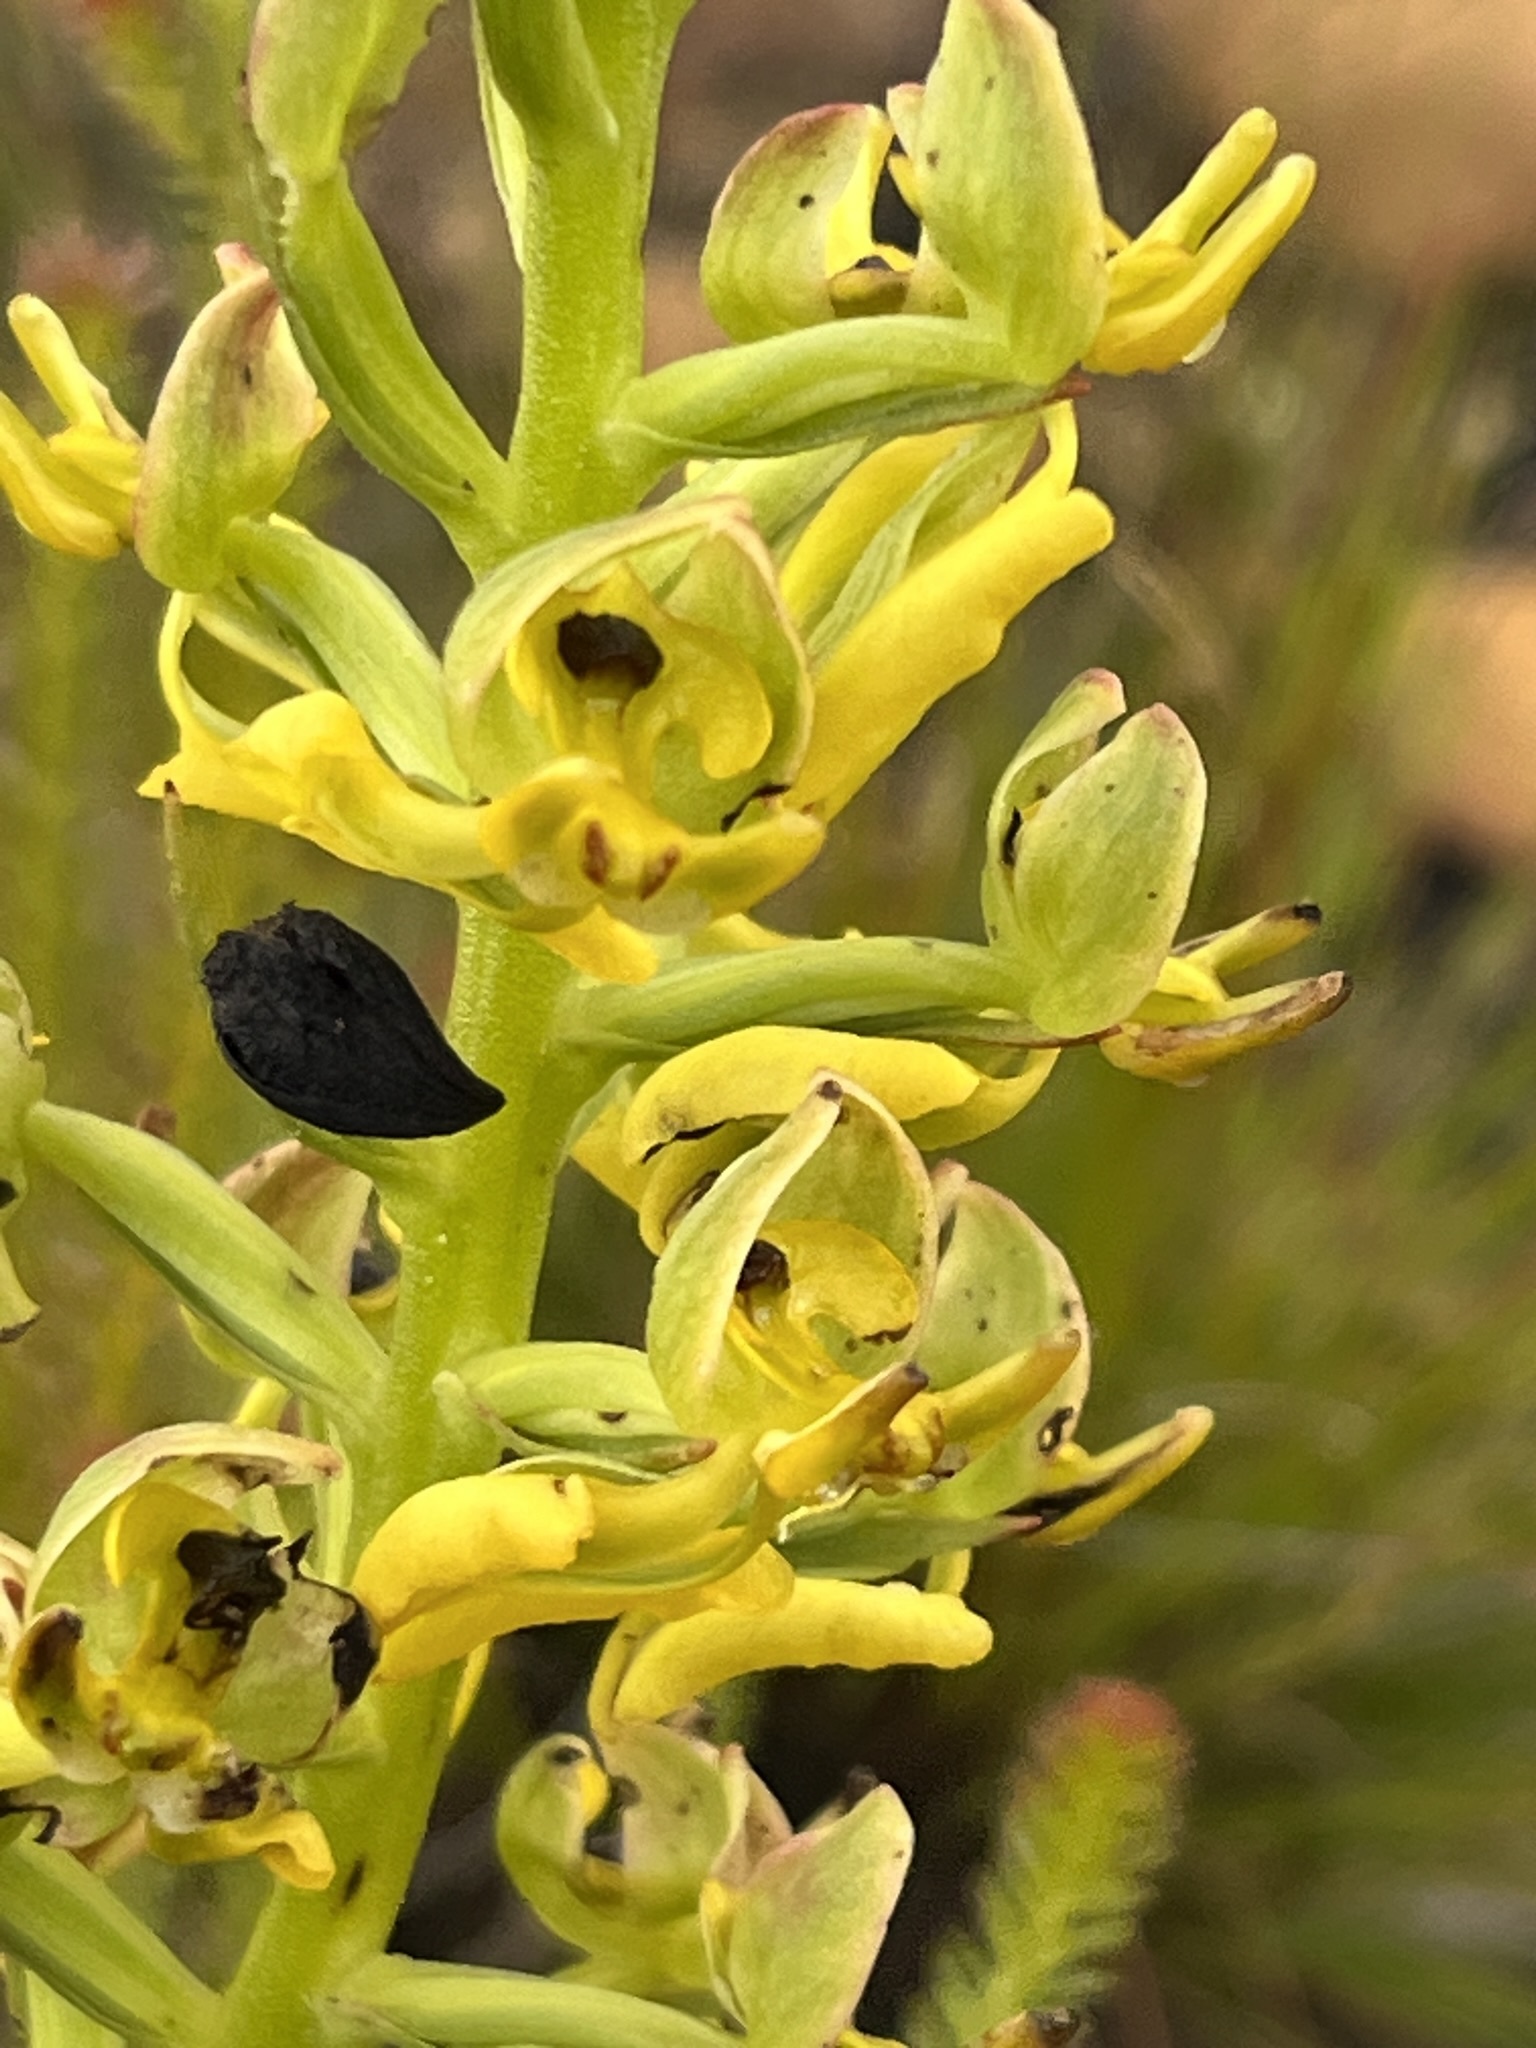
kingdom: Plantae
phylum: Tracheophyta
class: Liliopsida
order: Asparagales
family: Orchidaceae
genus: Ceratandra
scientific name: Ceratandra atrata
